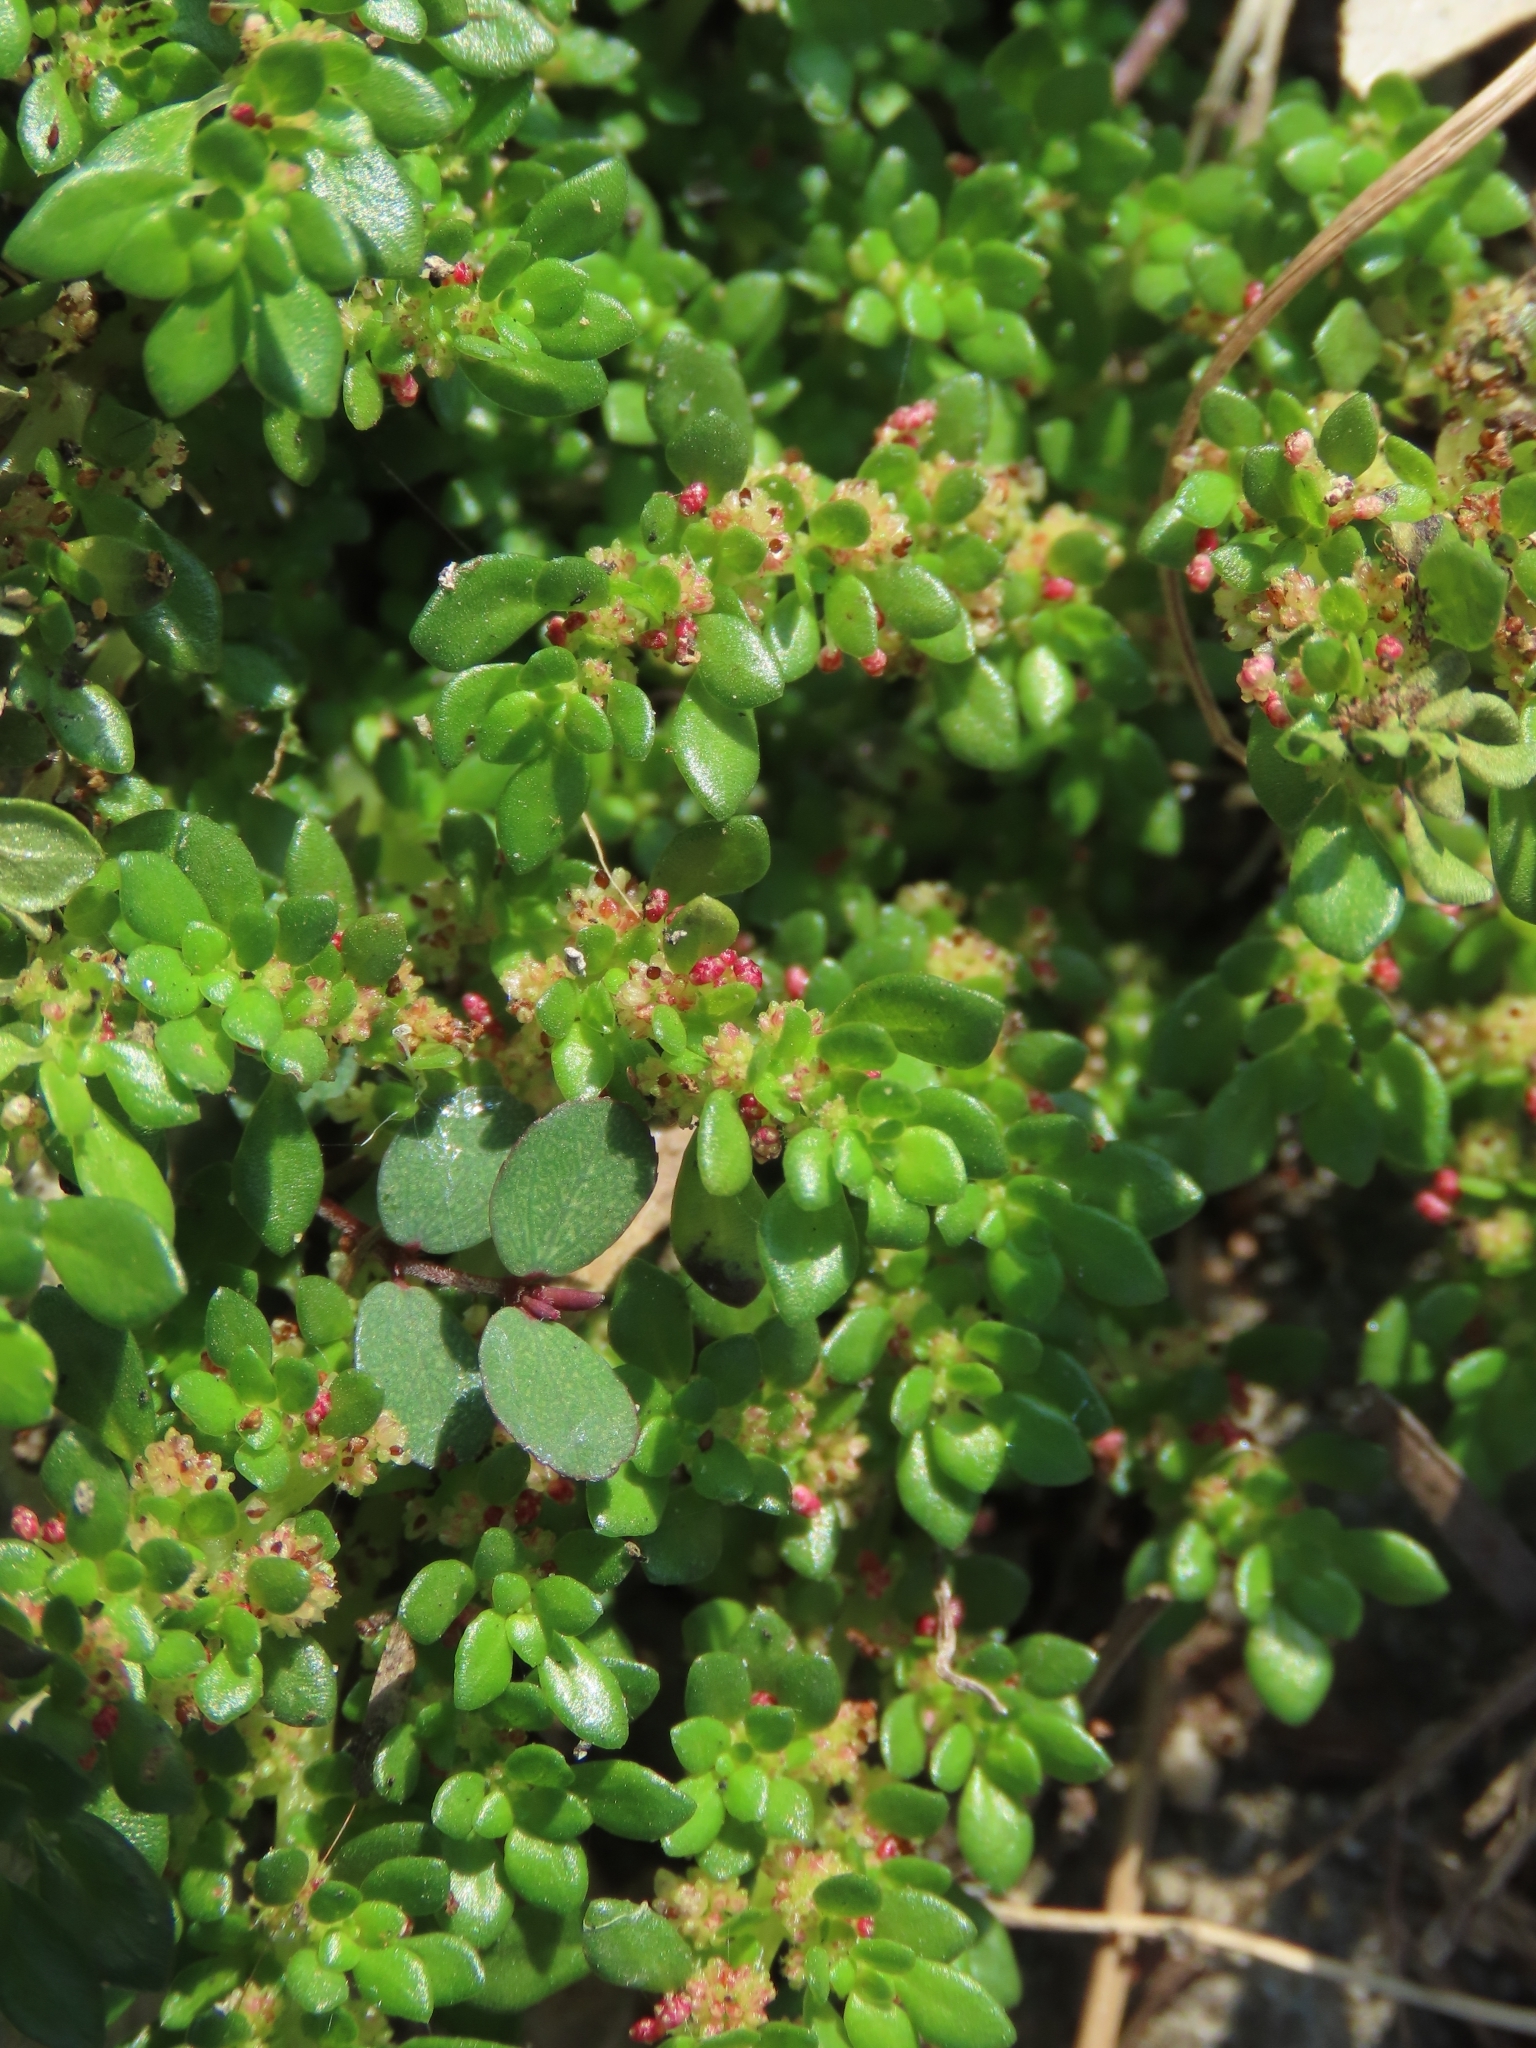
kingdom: Plantae
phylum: Tracheophyta
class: Magnoliopsida
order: Rosales
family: Urticaceae
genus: Pilea
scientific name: Pilea microphylla
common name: Artillery-plant
